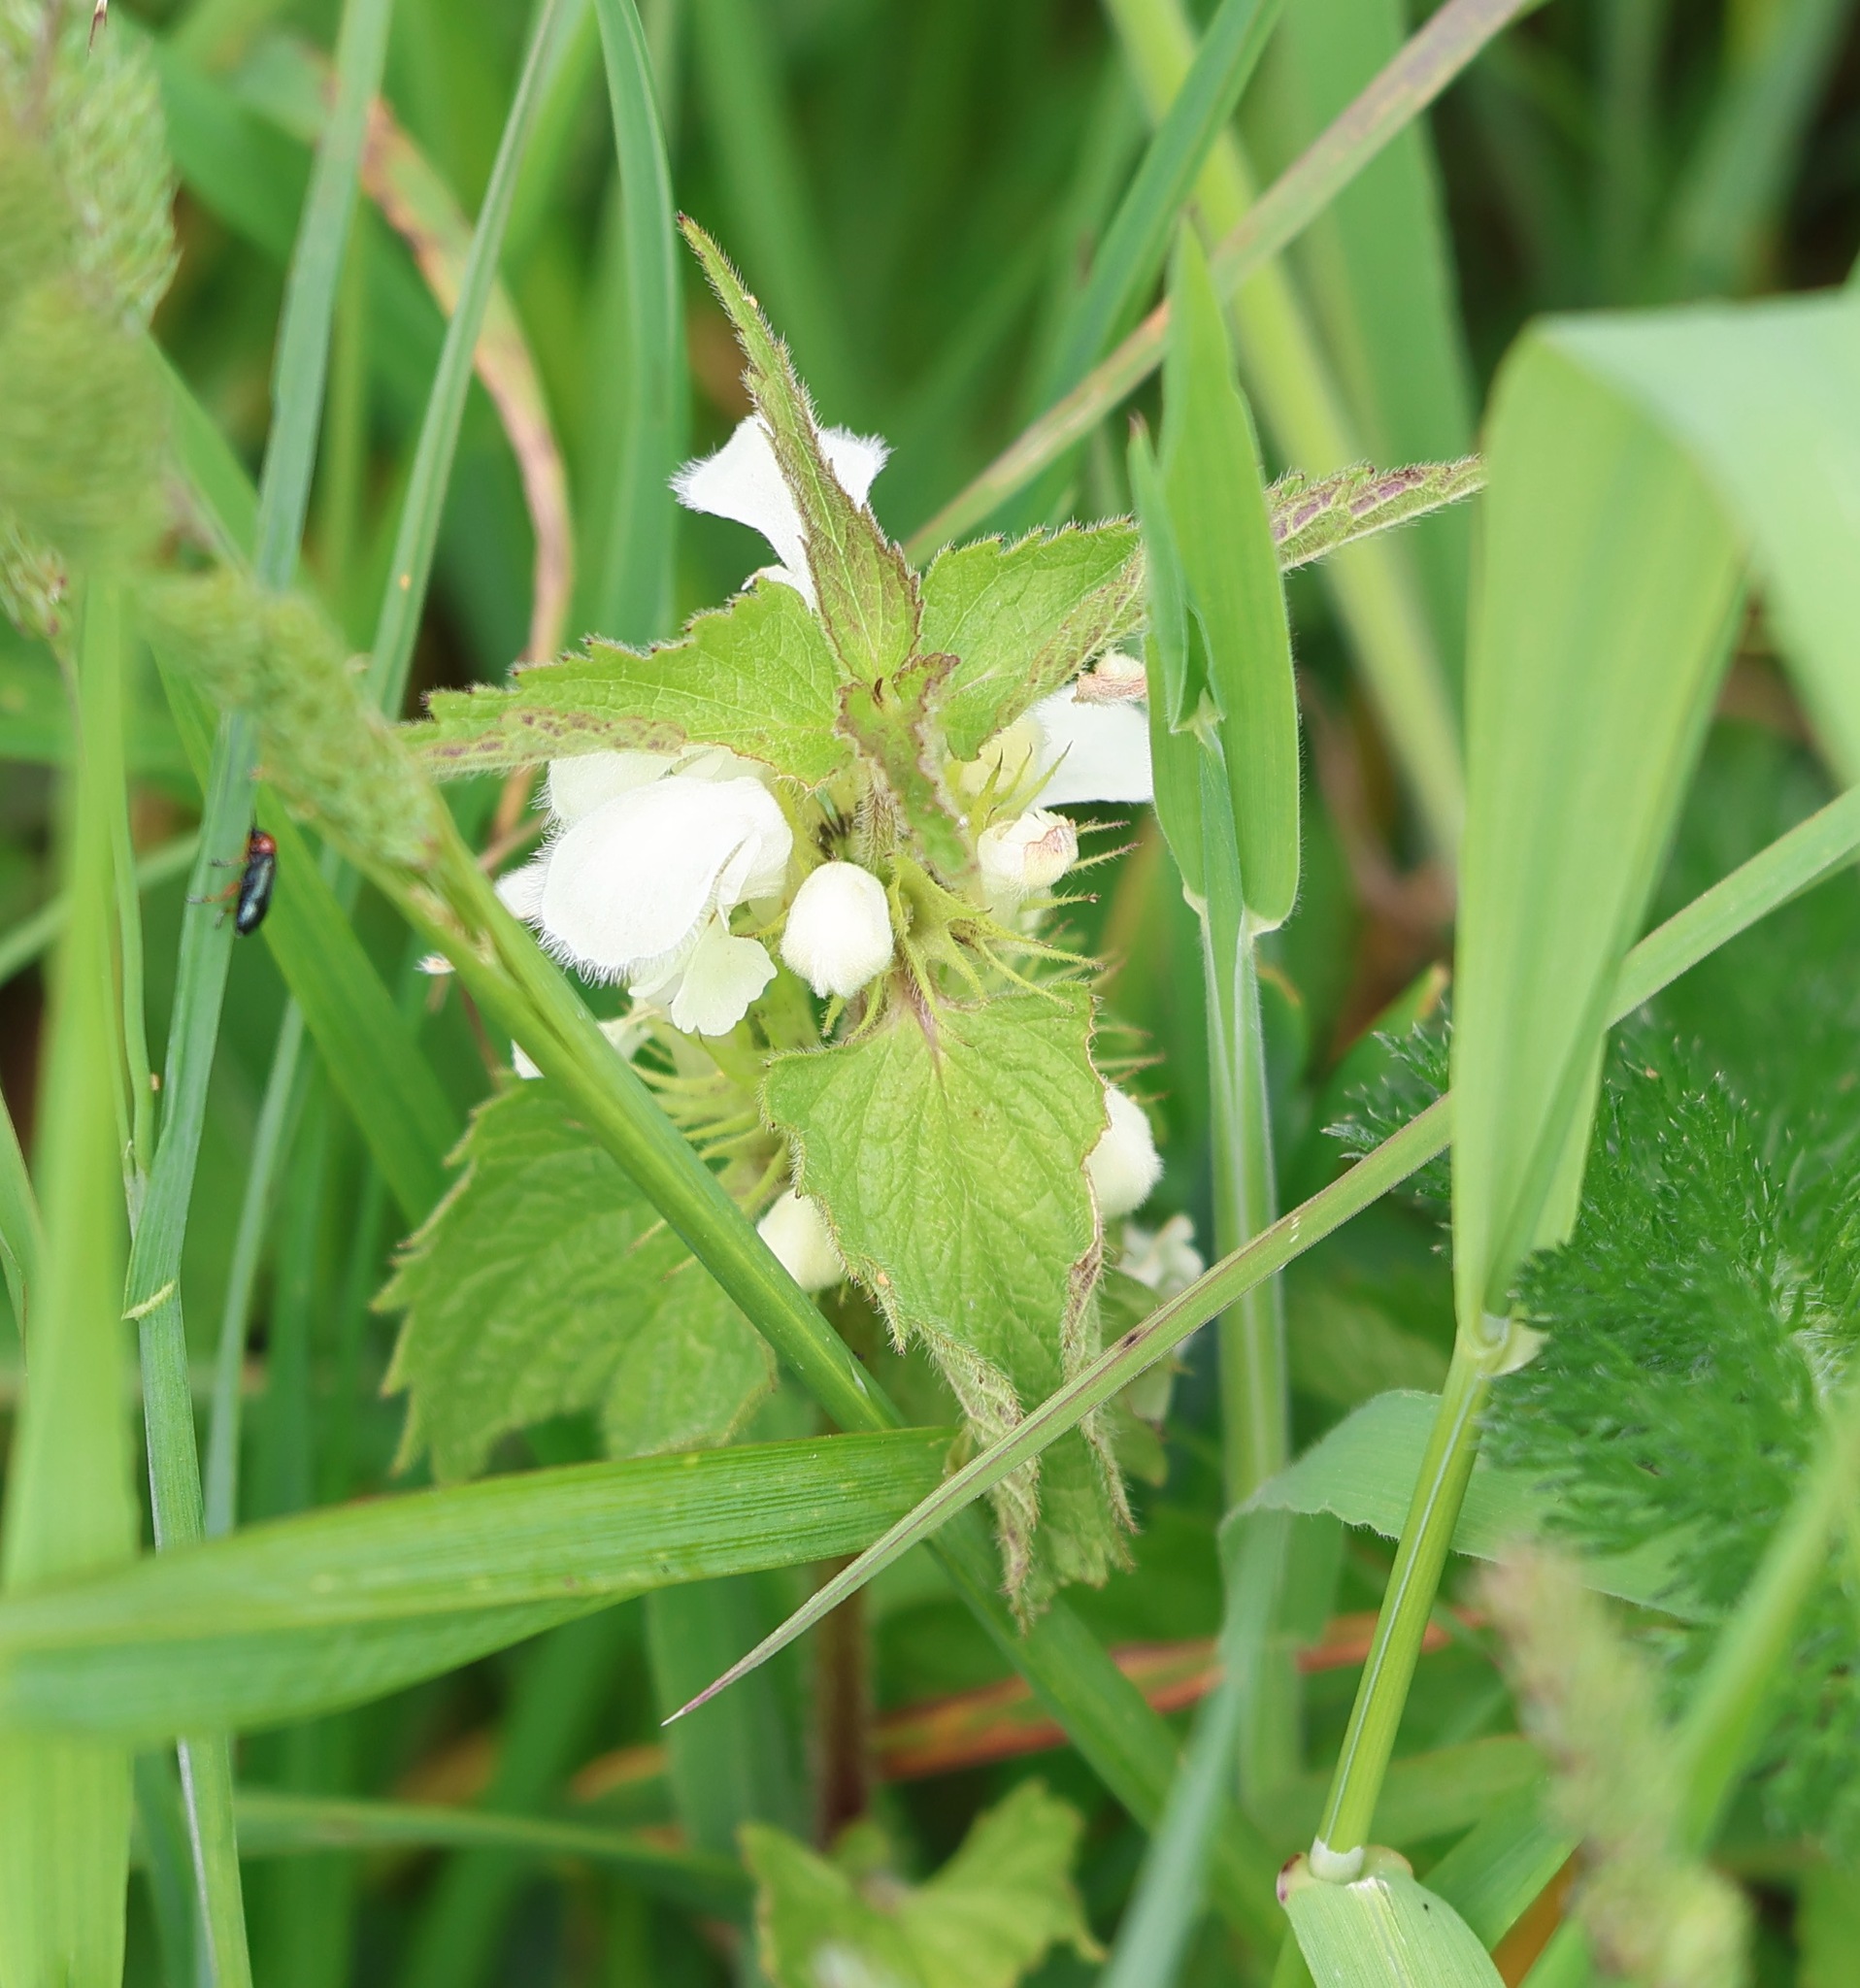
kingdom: Plantae
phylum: Tracheophyta
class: Magnoliopsida
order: Lamiales
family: Lamiaceae
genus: Lamium
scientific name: Lamium album
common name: White dead-nettle
